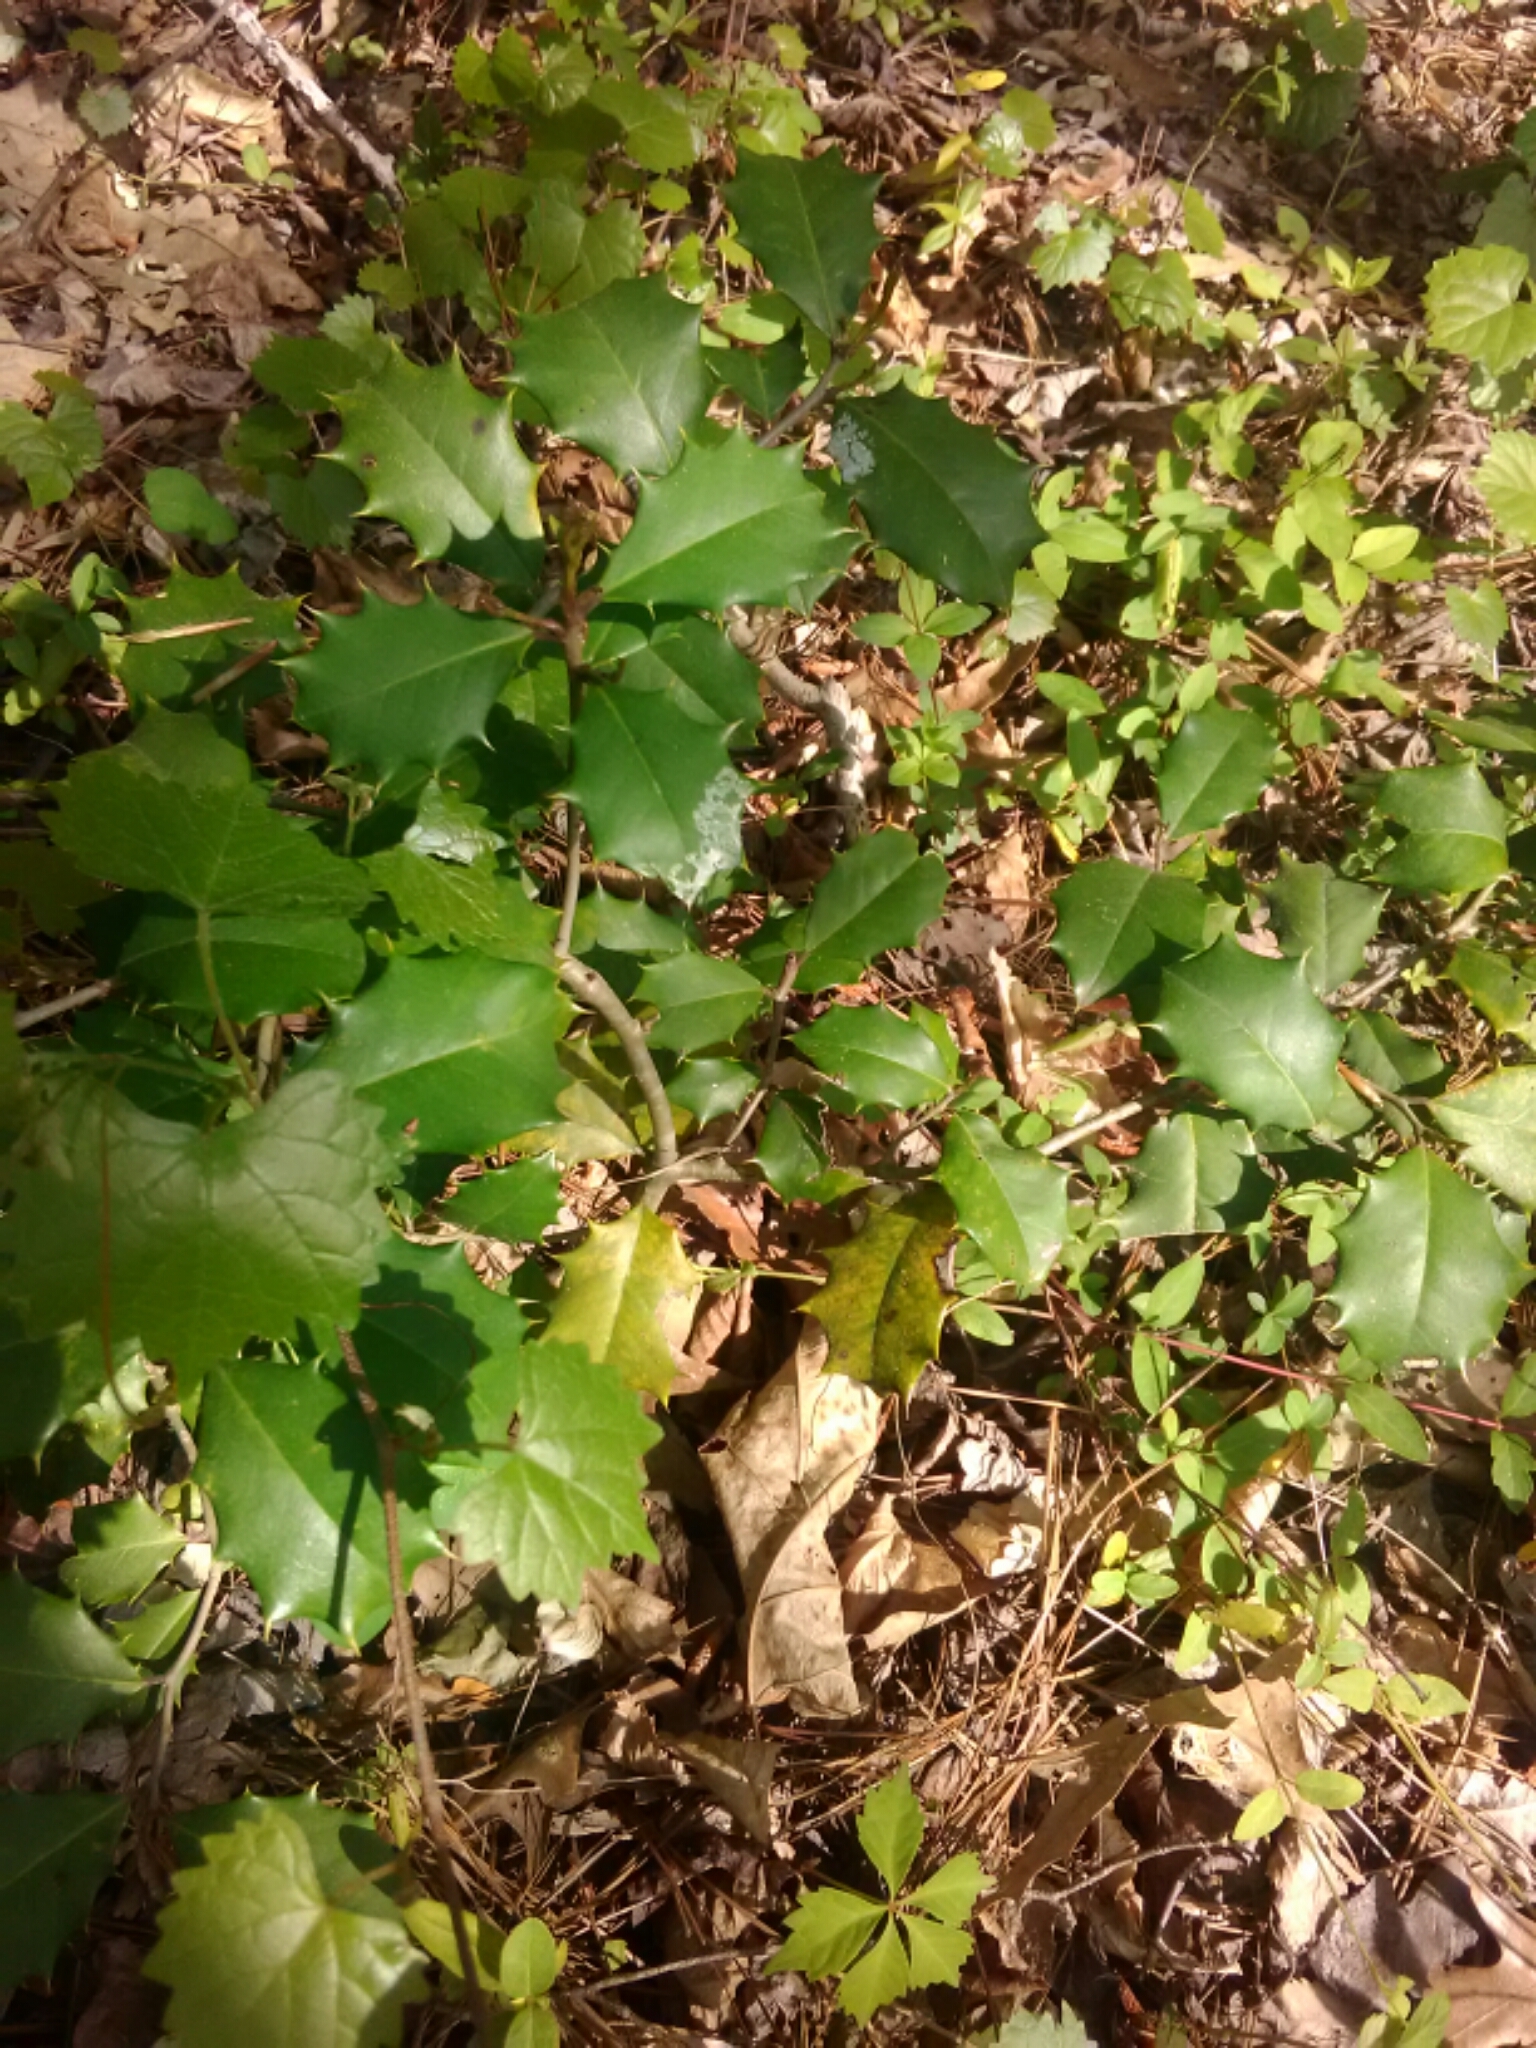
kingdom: Plantae
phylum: Tracheophyta
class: Magnoliopsida
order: Aquifoliales
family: Aquifoliaceae
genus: Ilex
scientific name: Ilex opaca
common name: American holly
